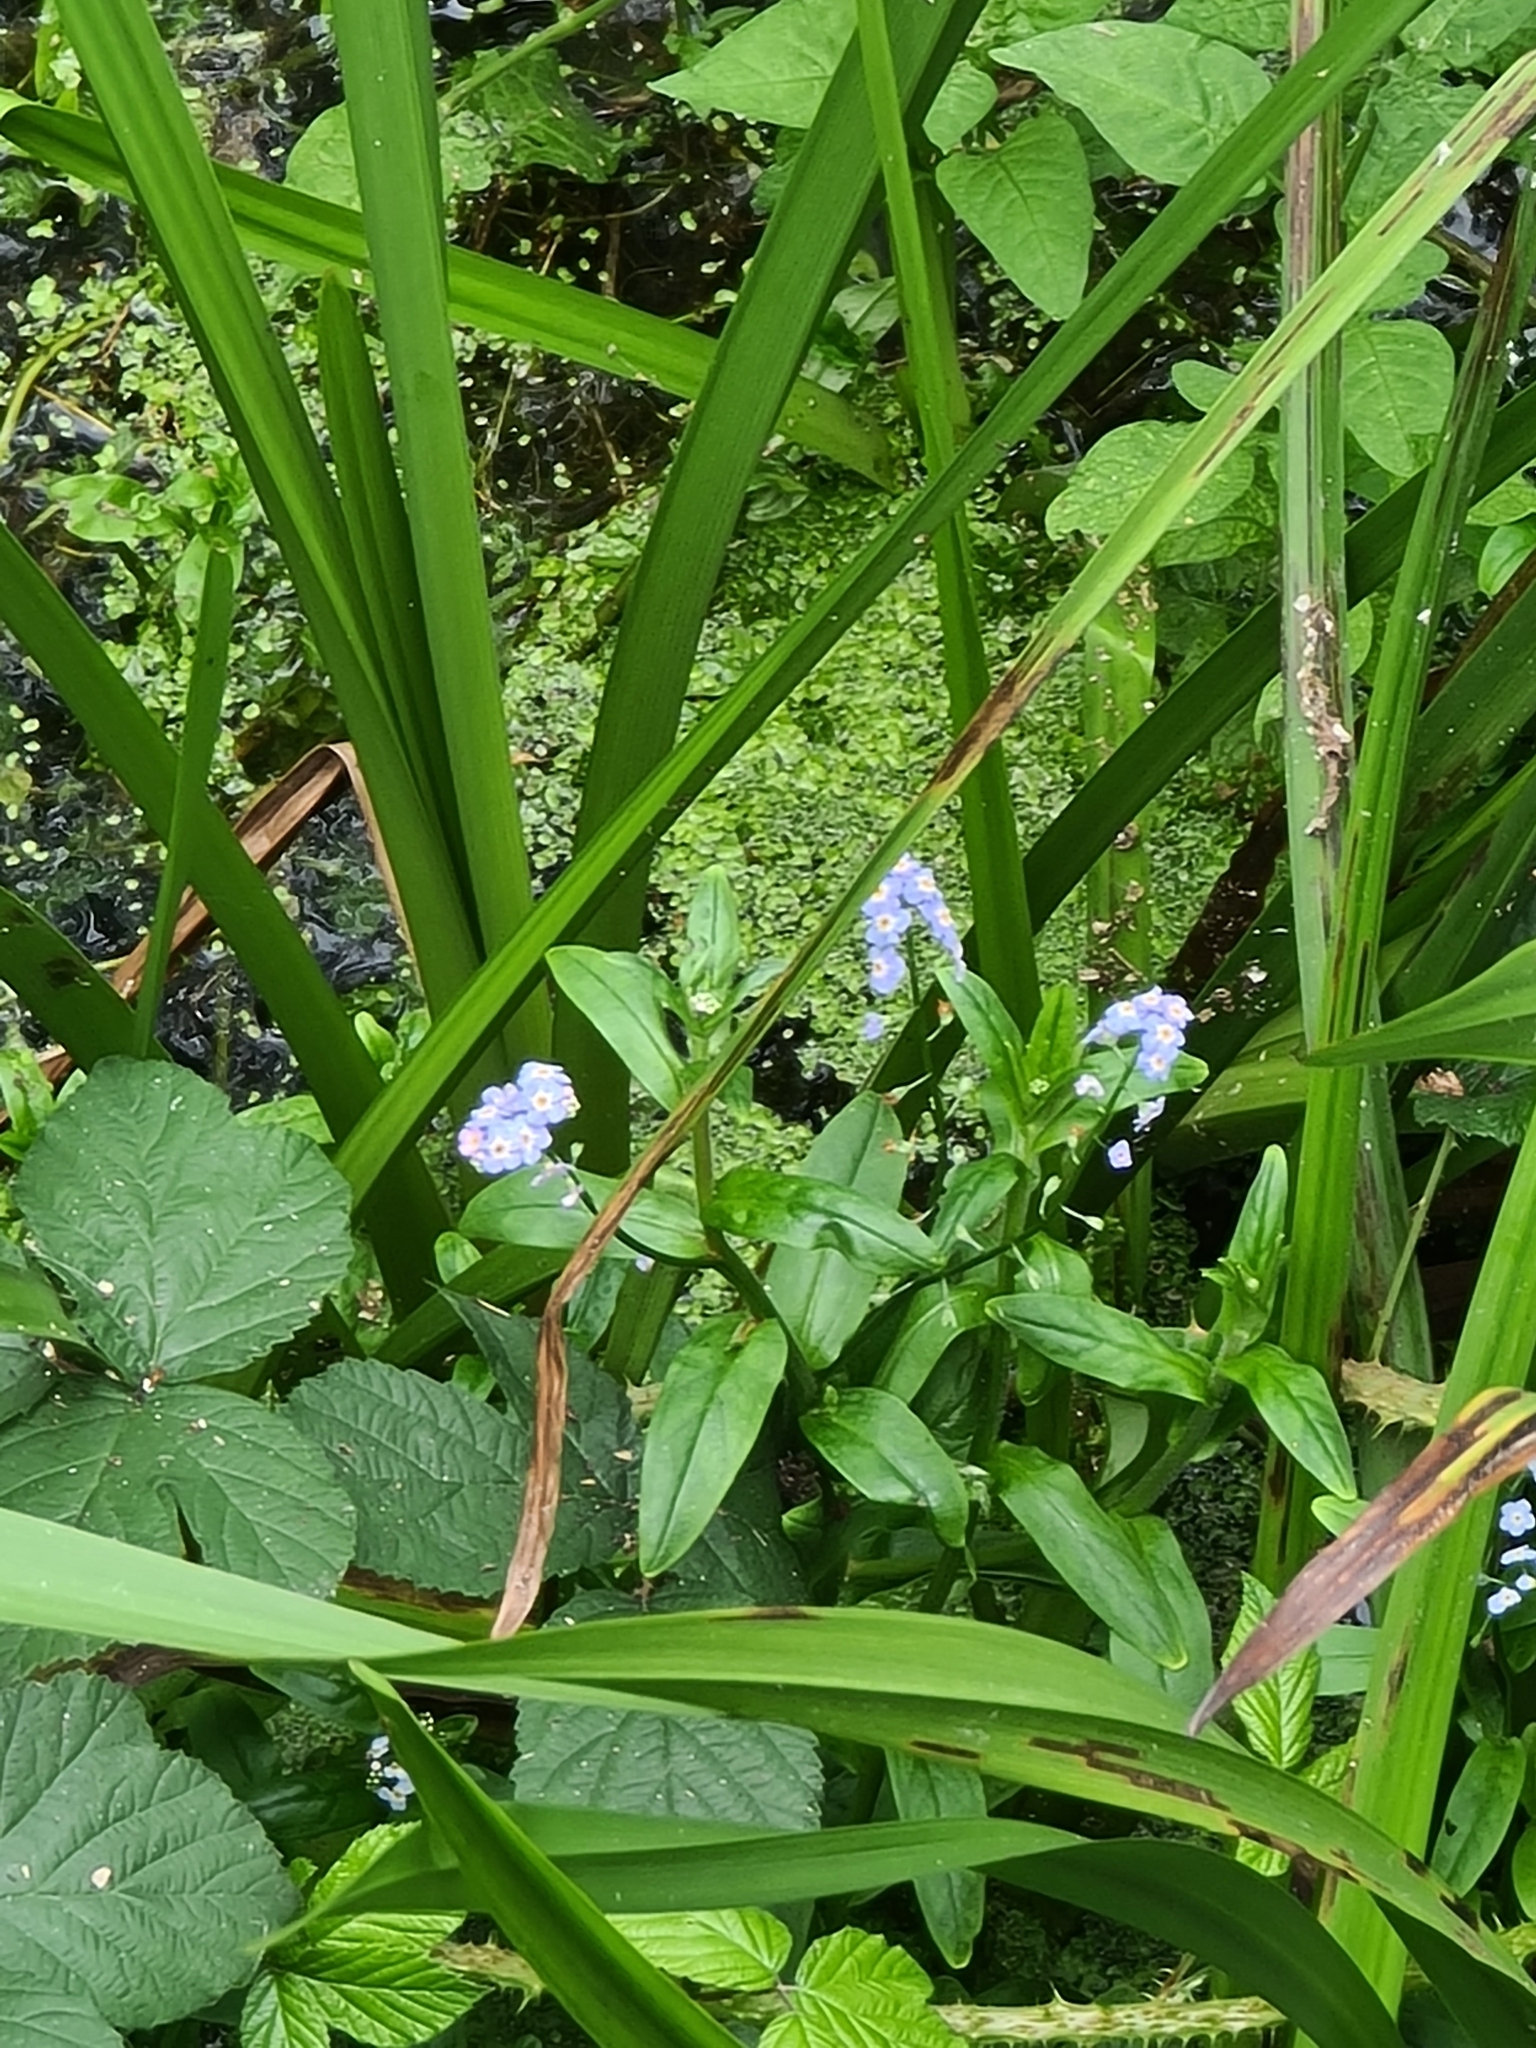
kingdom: Plantae
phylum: Tracheophyta
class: Magnoliopsida
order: Boraginales
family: Boraginaceae
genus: Myosotis
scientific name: Myosotis scorpioides
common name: Water forget-me-not
